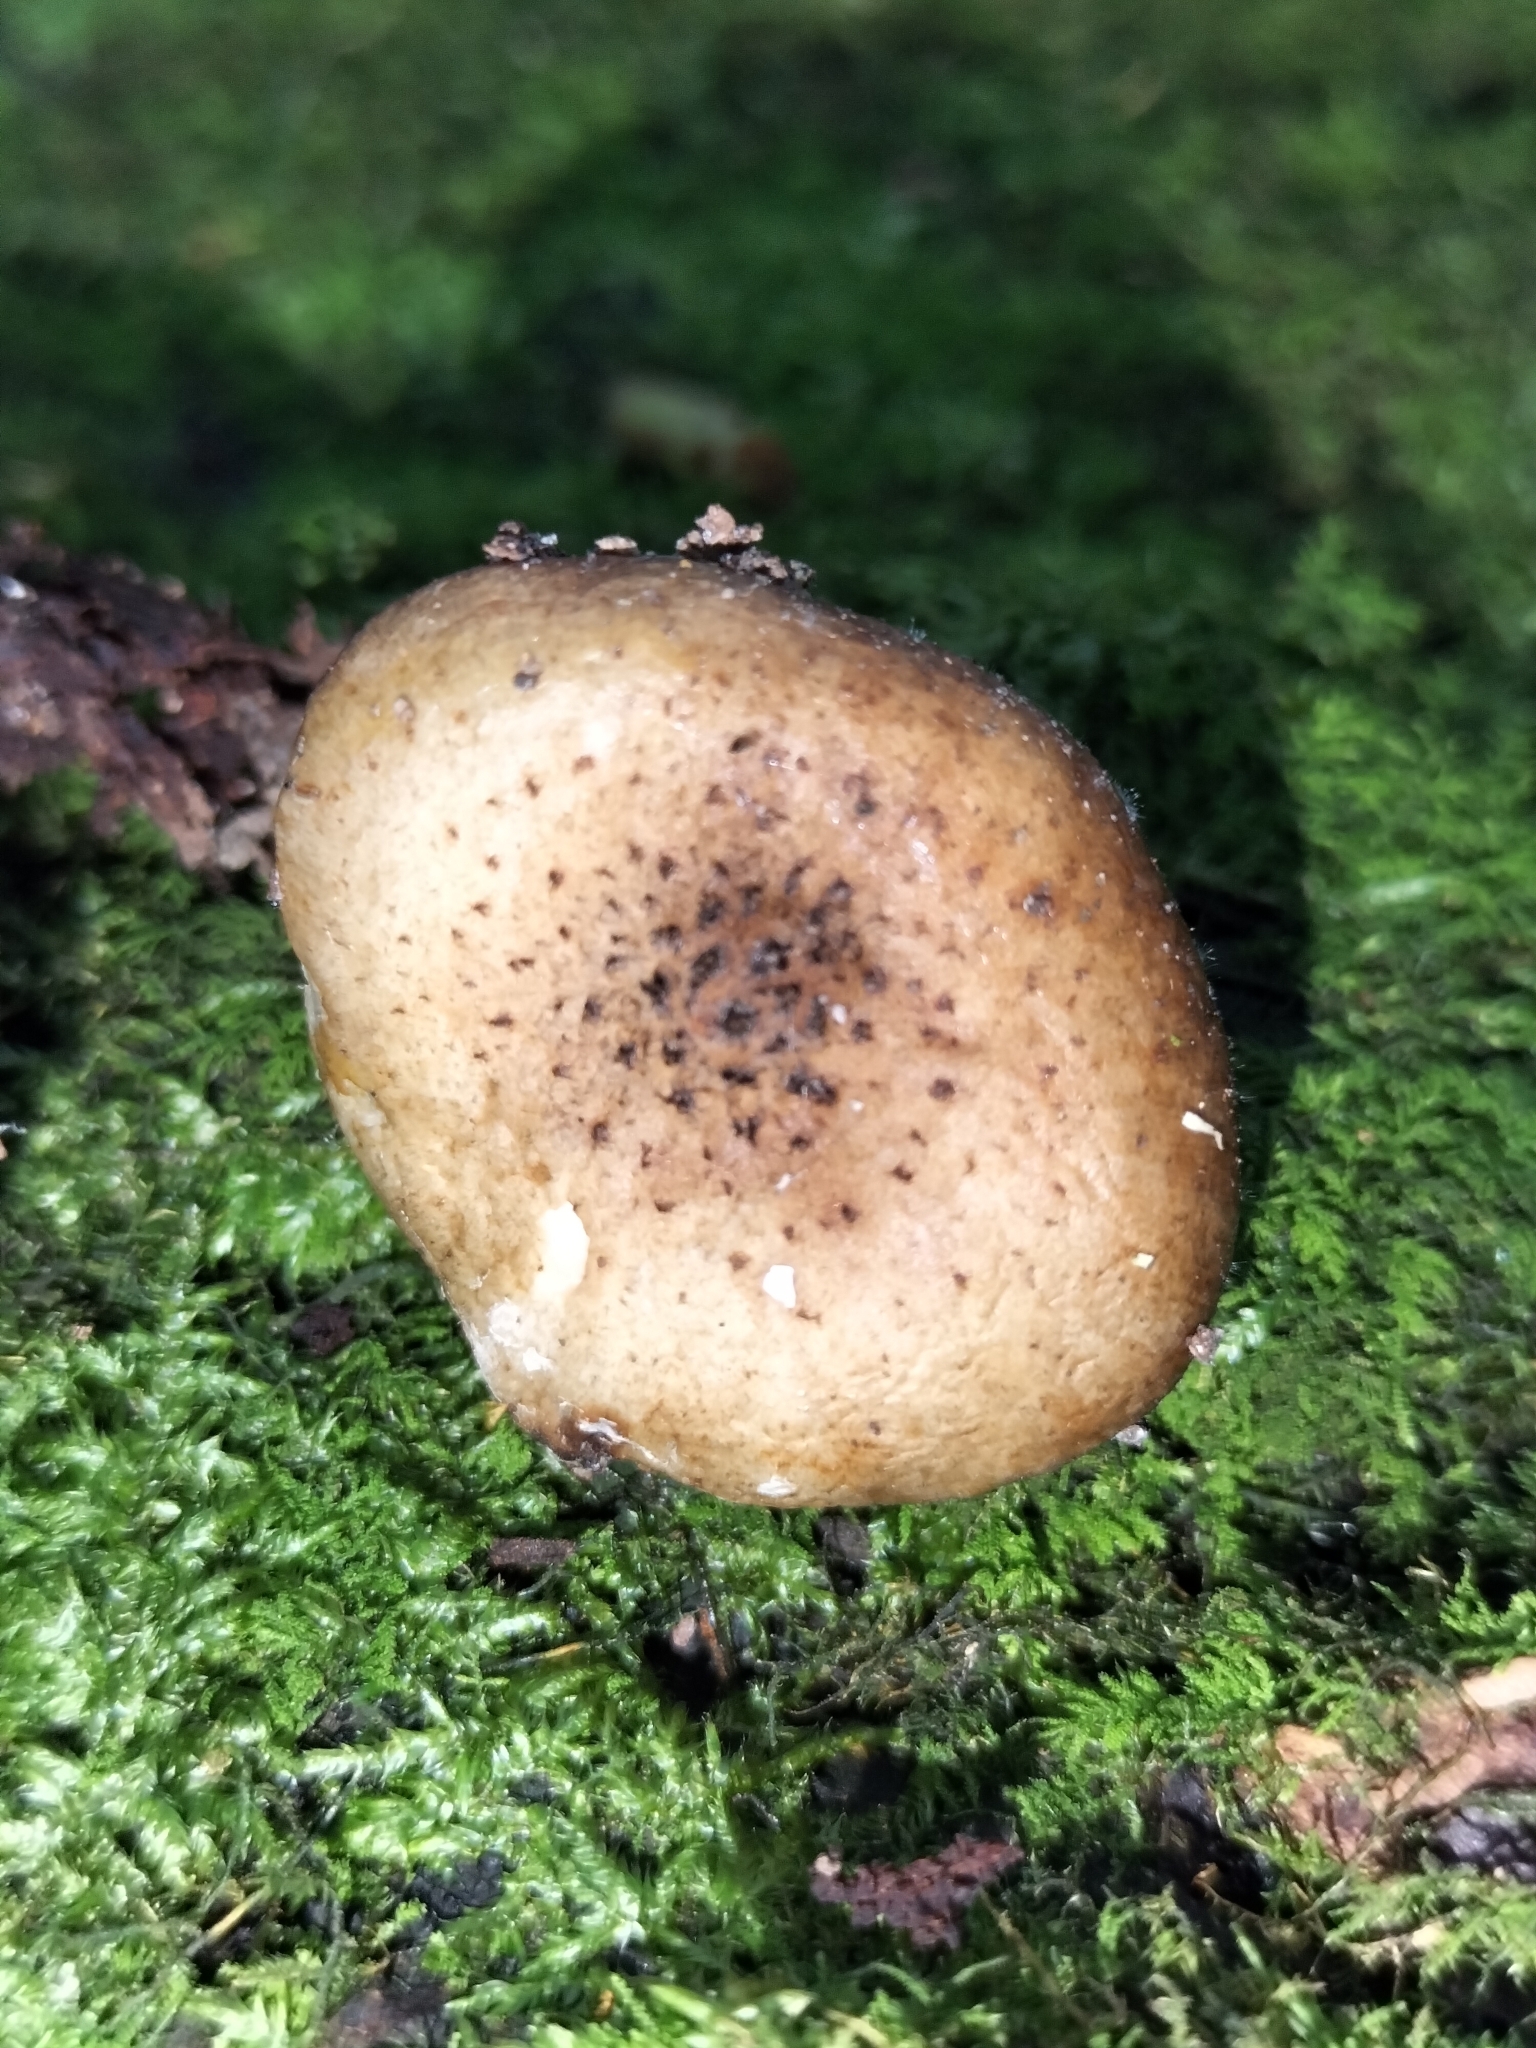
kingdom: Fungi
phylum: Basidiomycota
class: Agaricomycetes
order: Agaricales
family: Physalacriaceae
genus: Armillaria
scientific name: Armillaria novae-zelandiae
